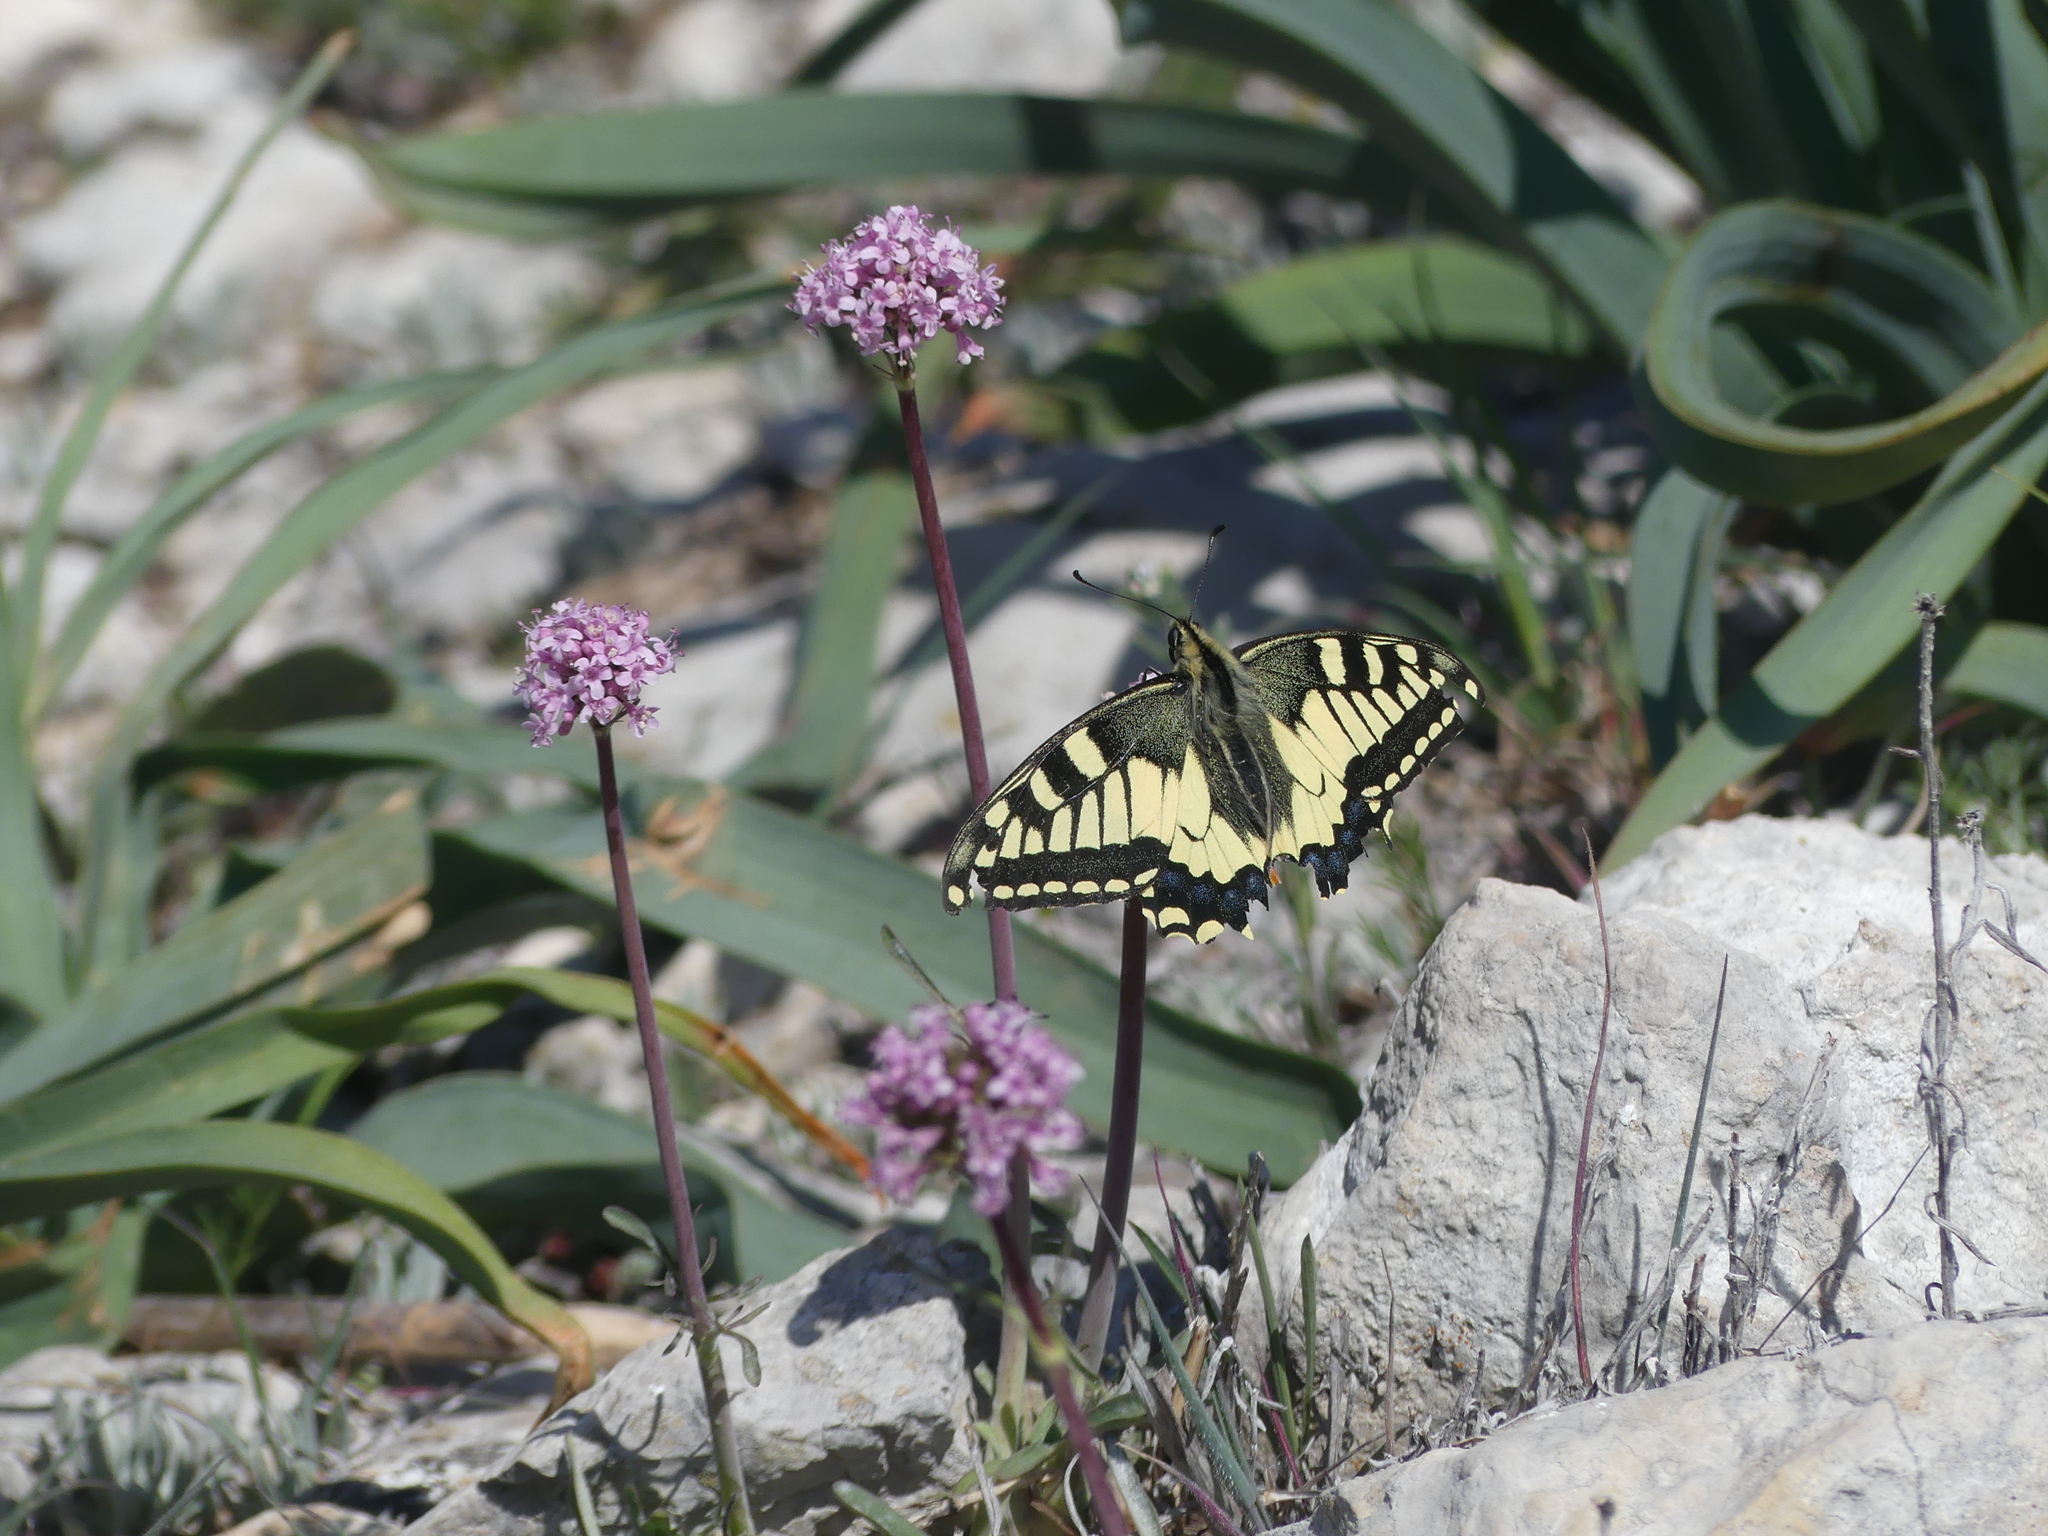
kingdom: Animalia
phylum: Arthropoda
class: Insecta
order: Lepidoptera
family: Papilionidae
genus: Papilio
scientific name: Papilio machaon
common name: Swallowtail
